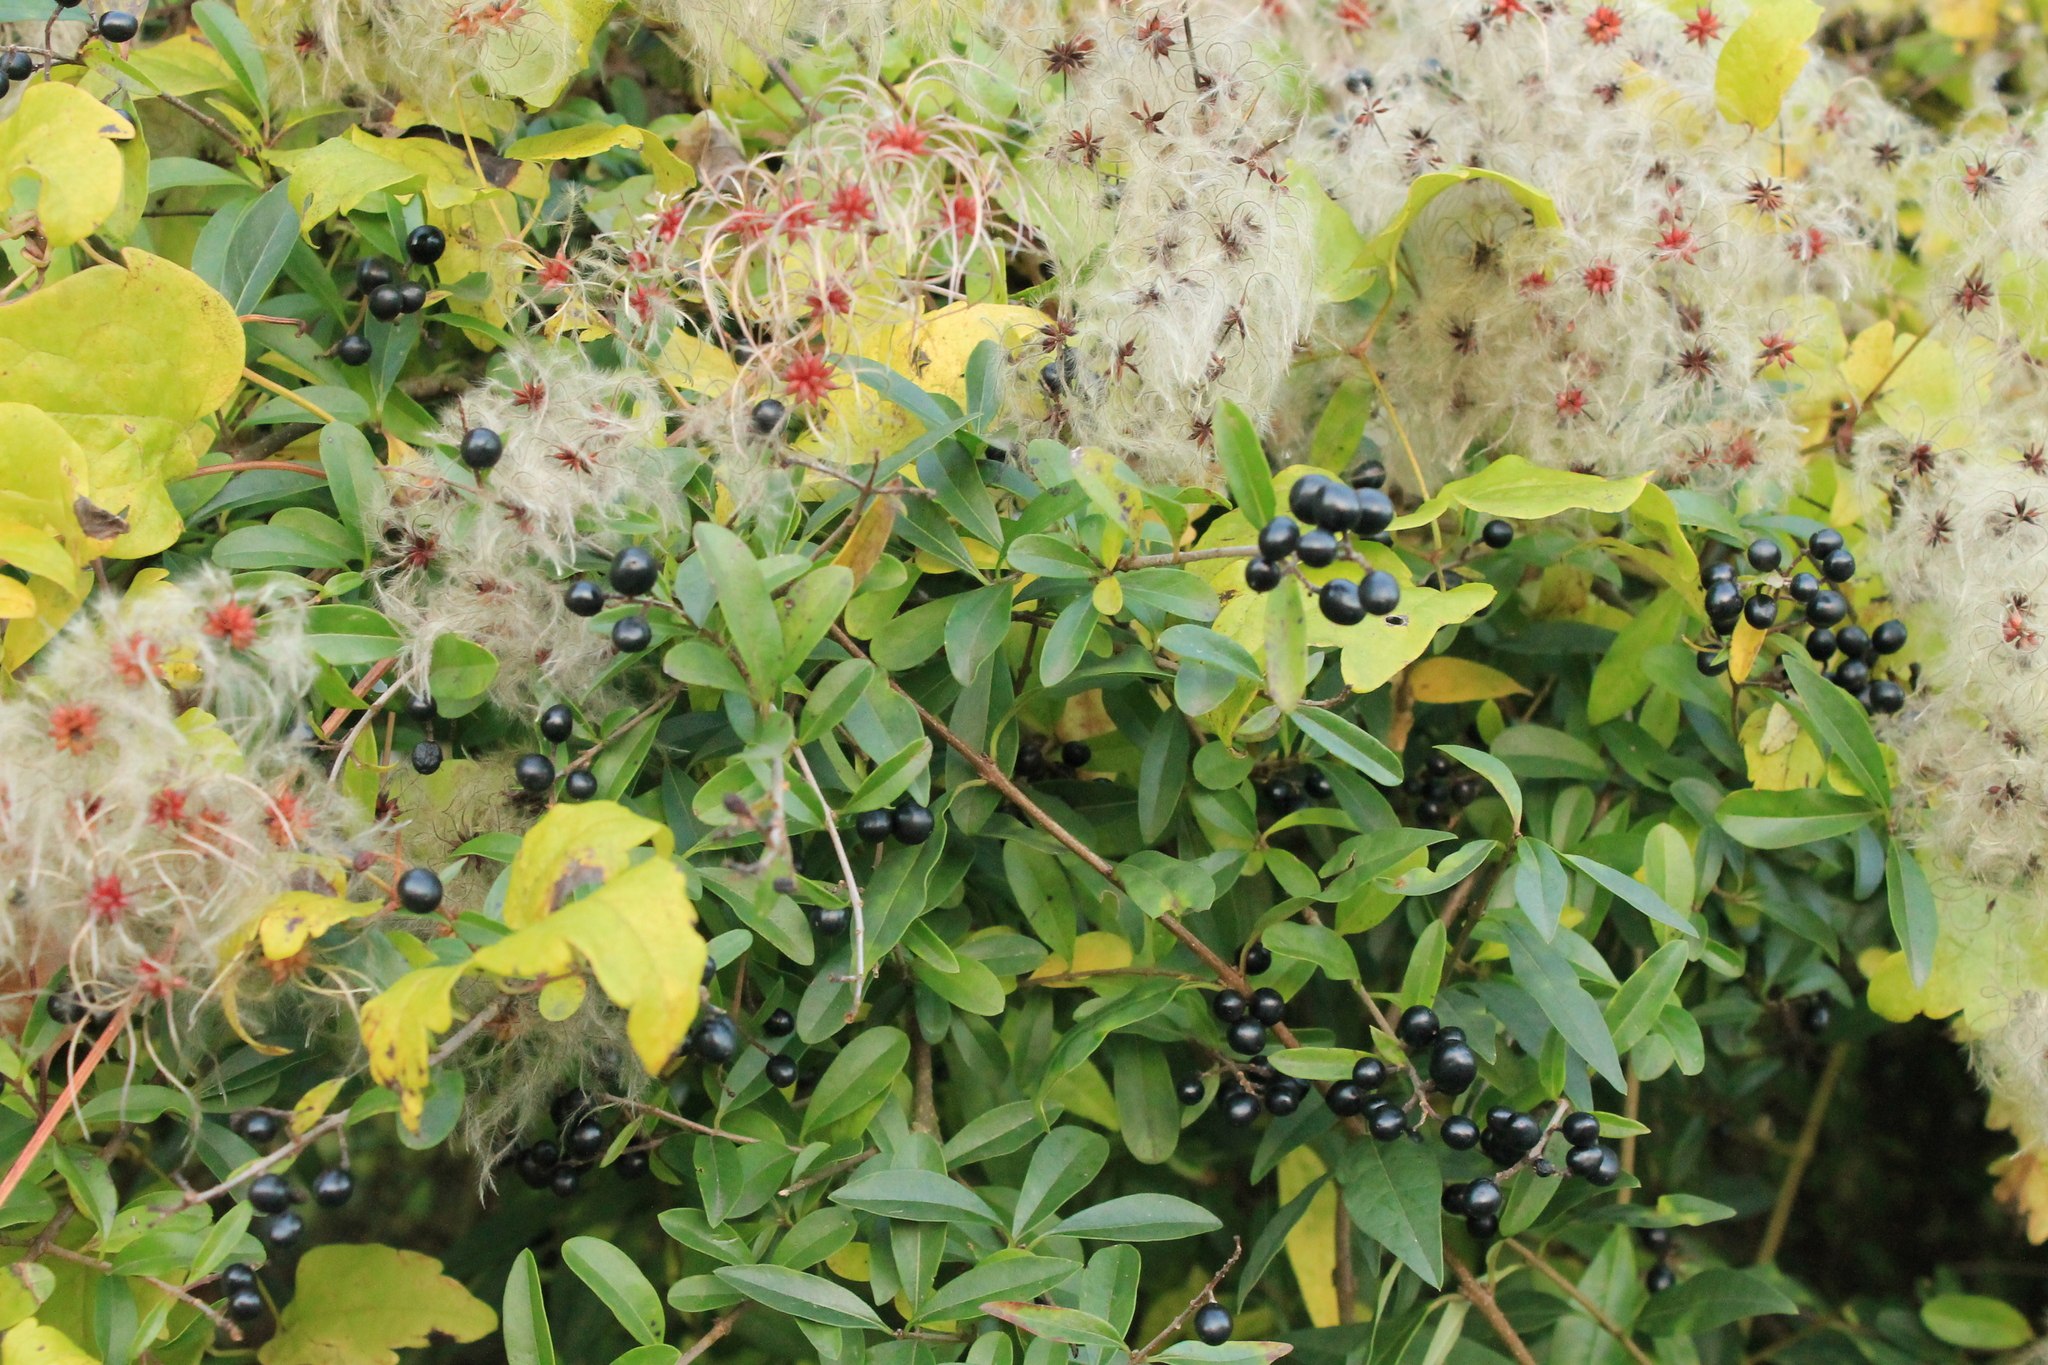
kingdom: Plantae
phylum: Tracheophyta
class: Magnoliopsida
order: Ranunculales
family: Ranunculaceae
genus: Clematis
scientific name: Clematis vitalba
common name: Evergreen clematis
